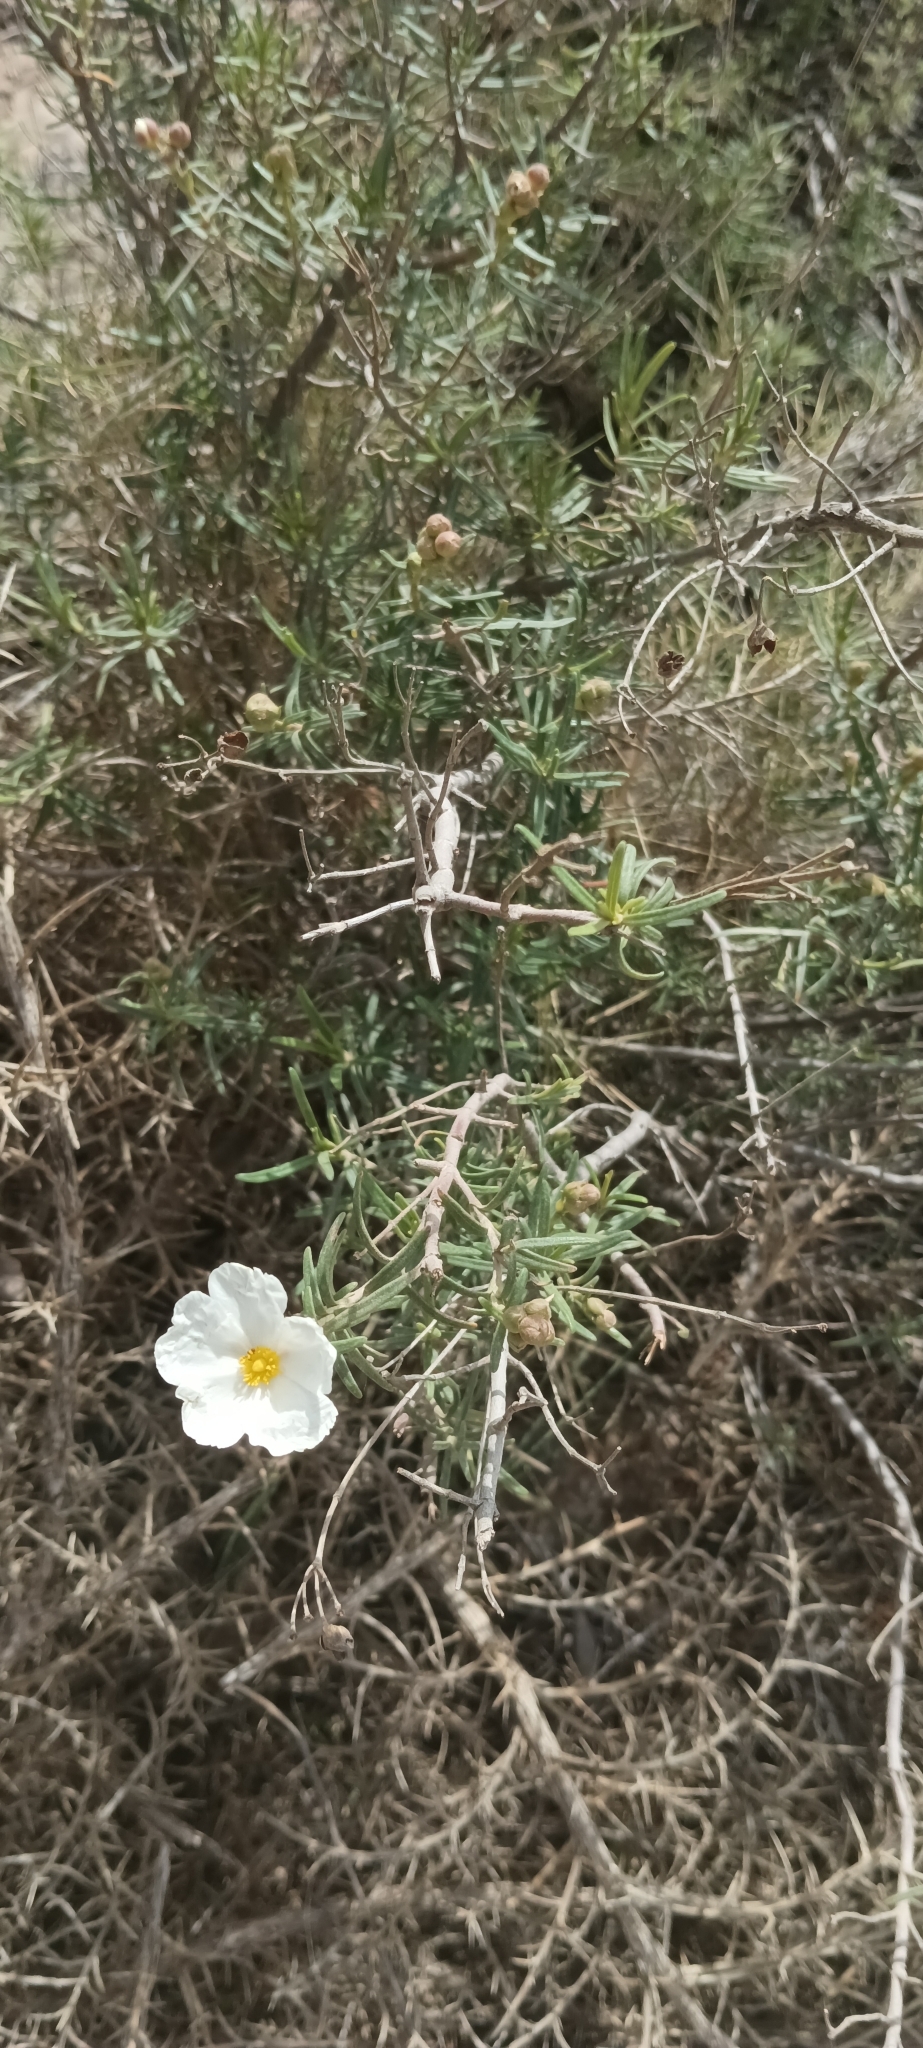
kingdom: Plantae
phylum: Tracheophyta
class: Magnoliopsida
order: Malvales
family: Cistaceae
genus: Cistus
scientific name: Cistus clusii
